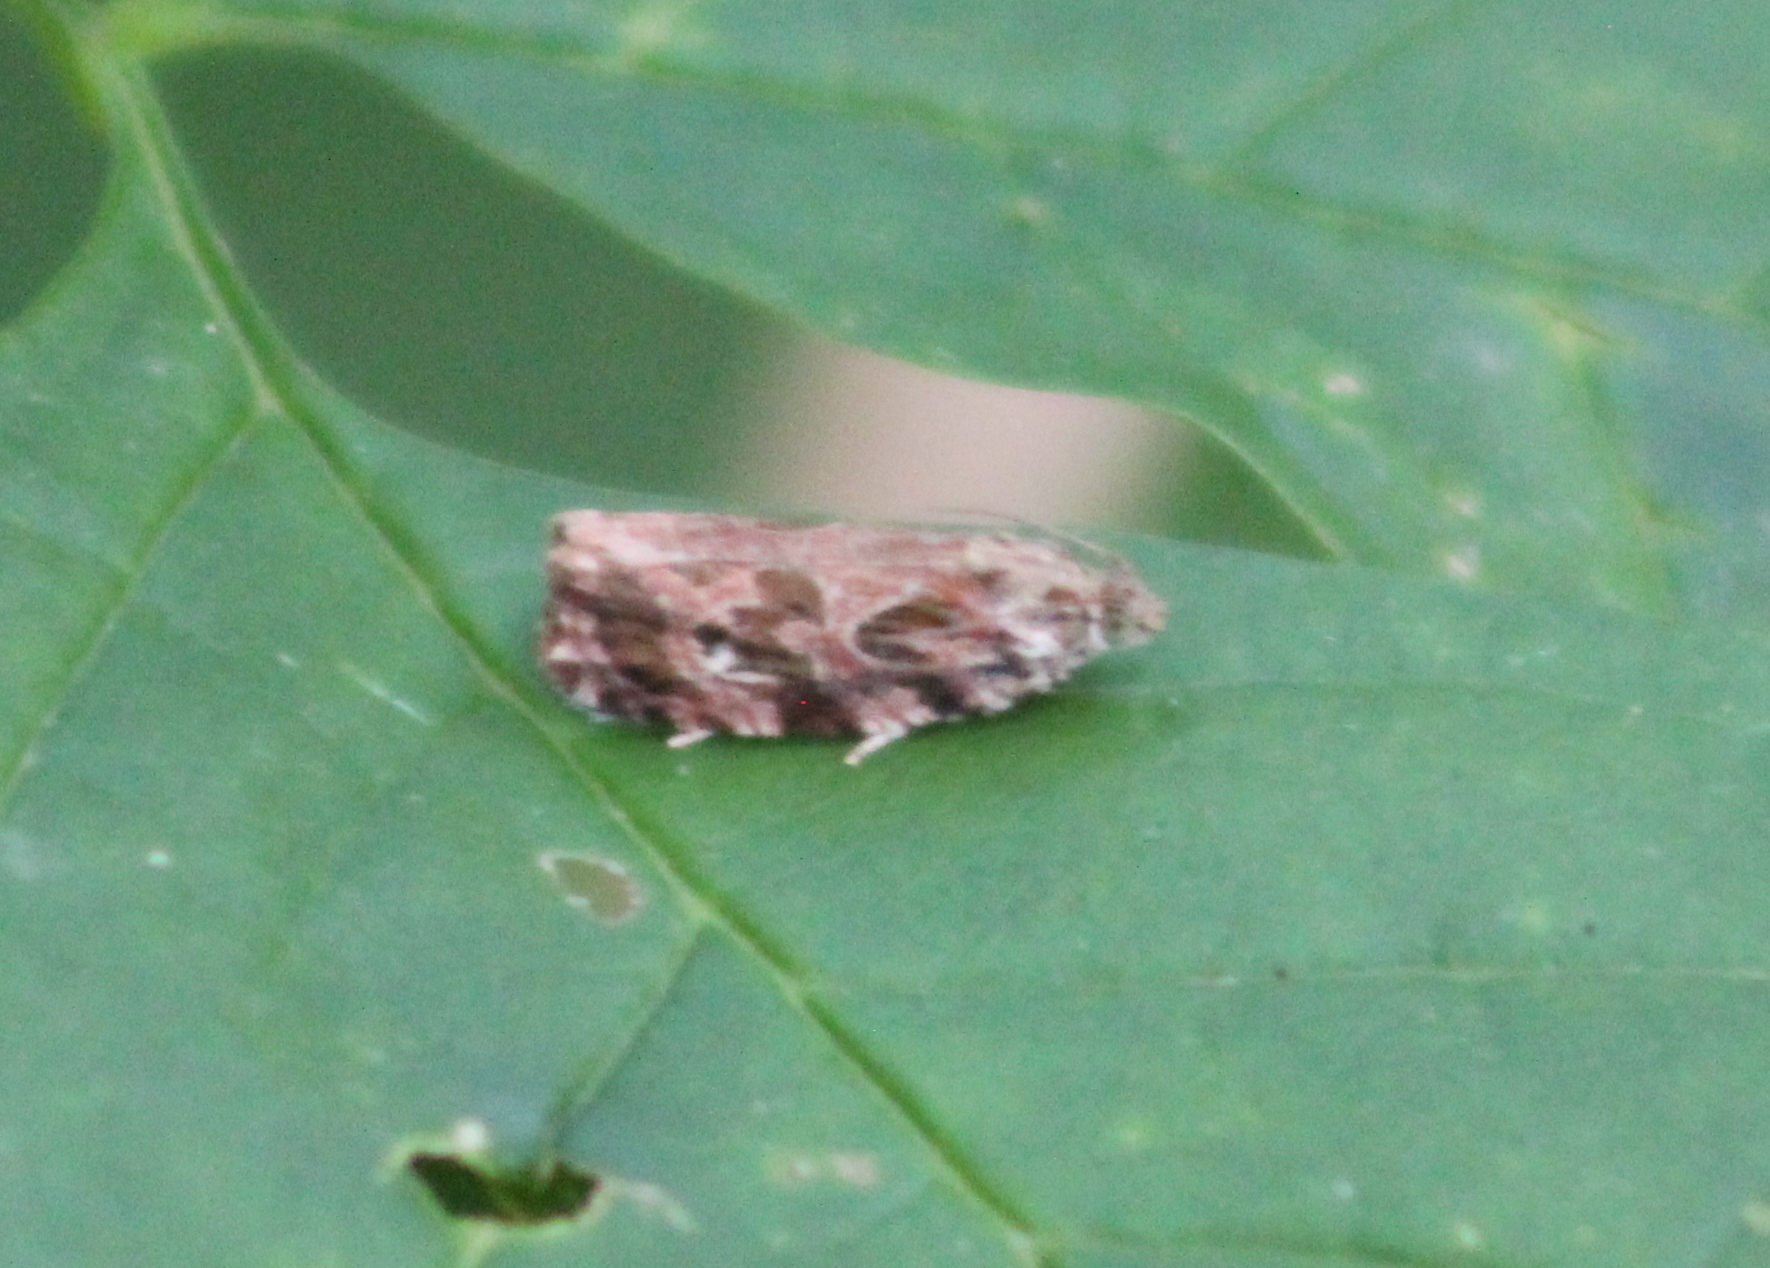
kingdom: Animalia
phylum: Arthropoda
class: Insecta
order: Lepidoptera
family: Tortricidae
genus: Phaecasiophora
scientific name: Phaecasiophora confixana
